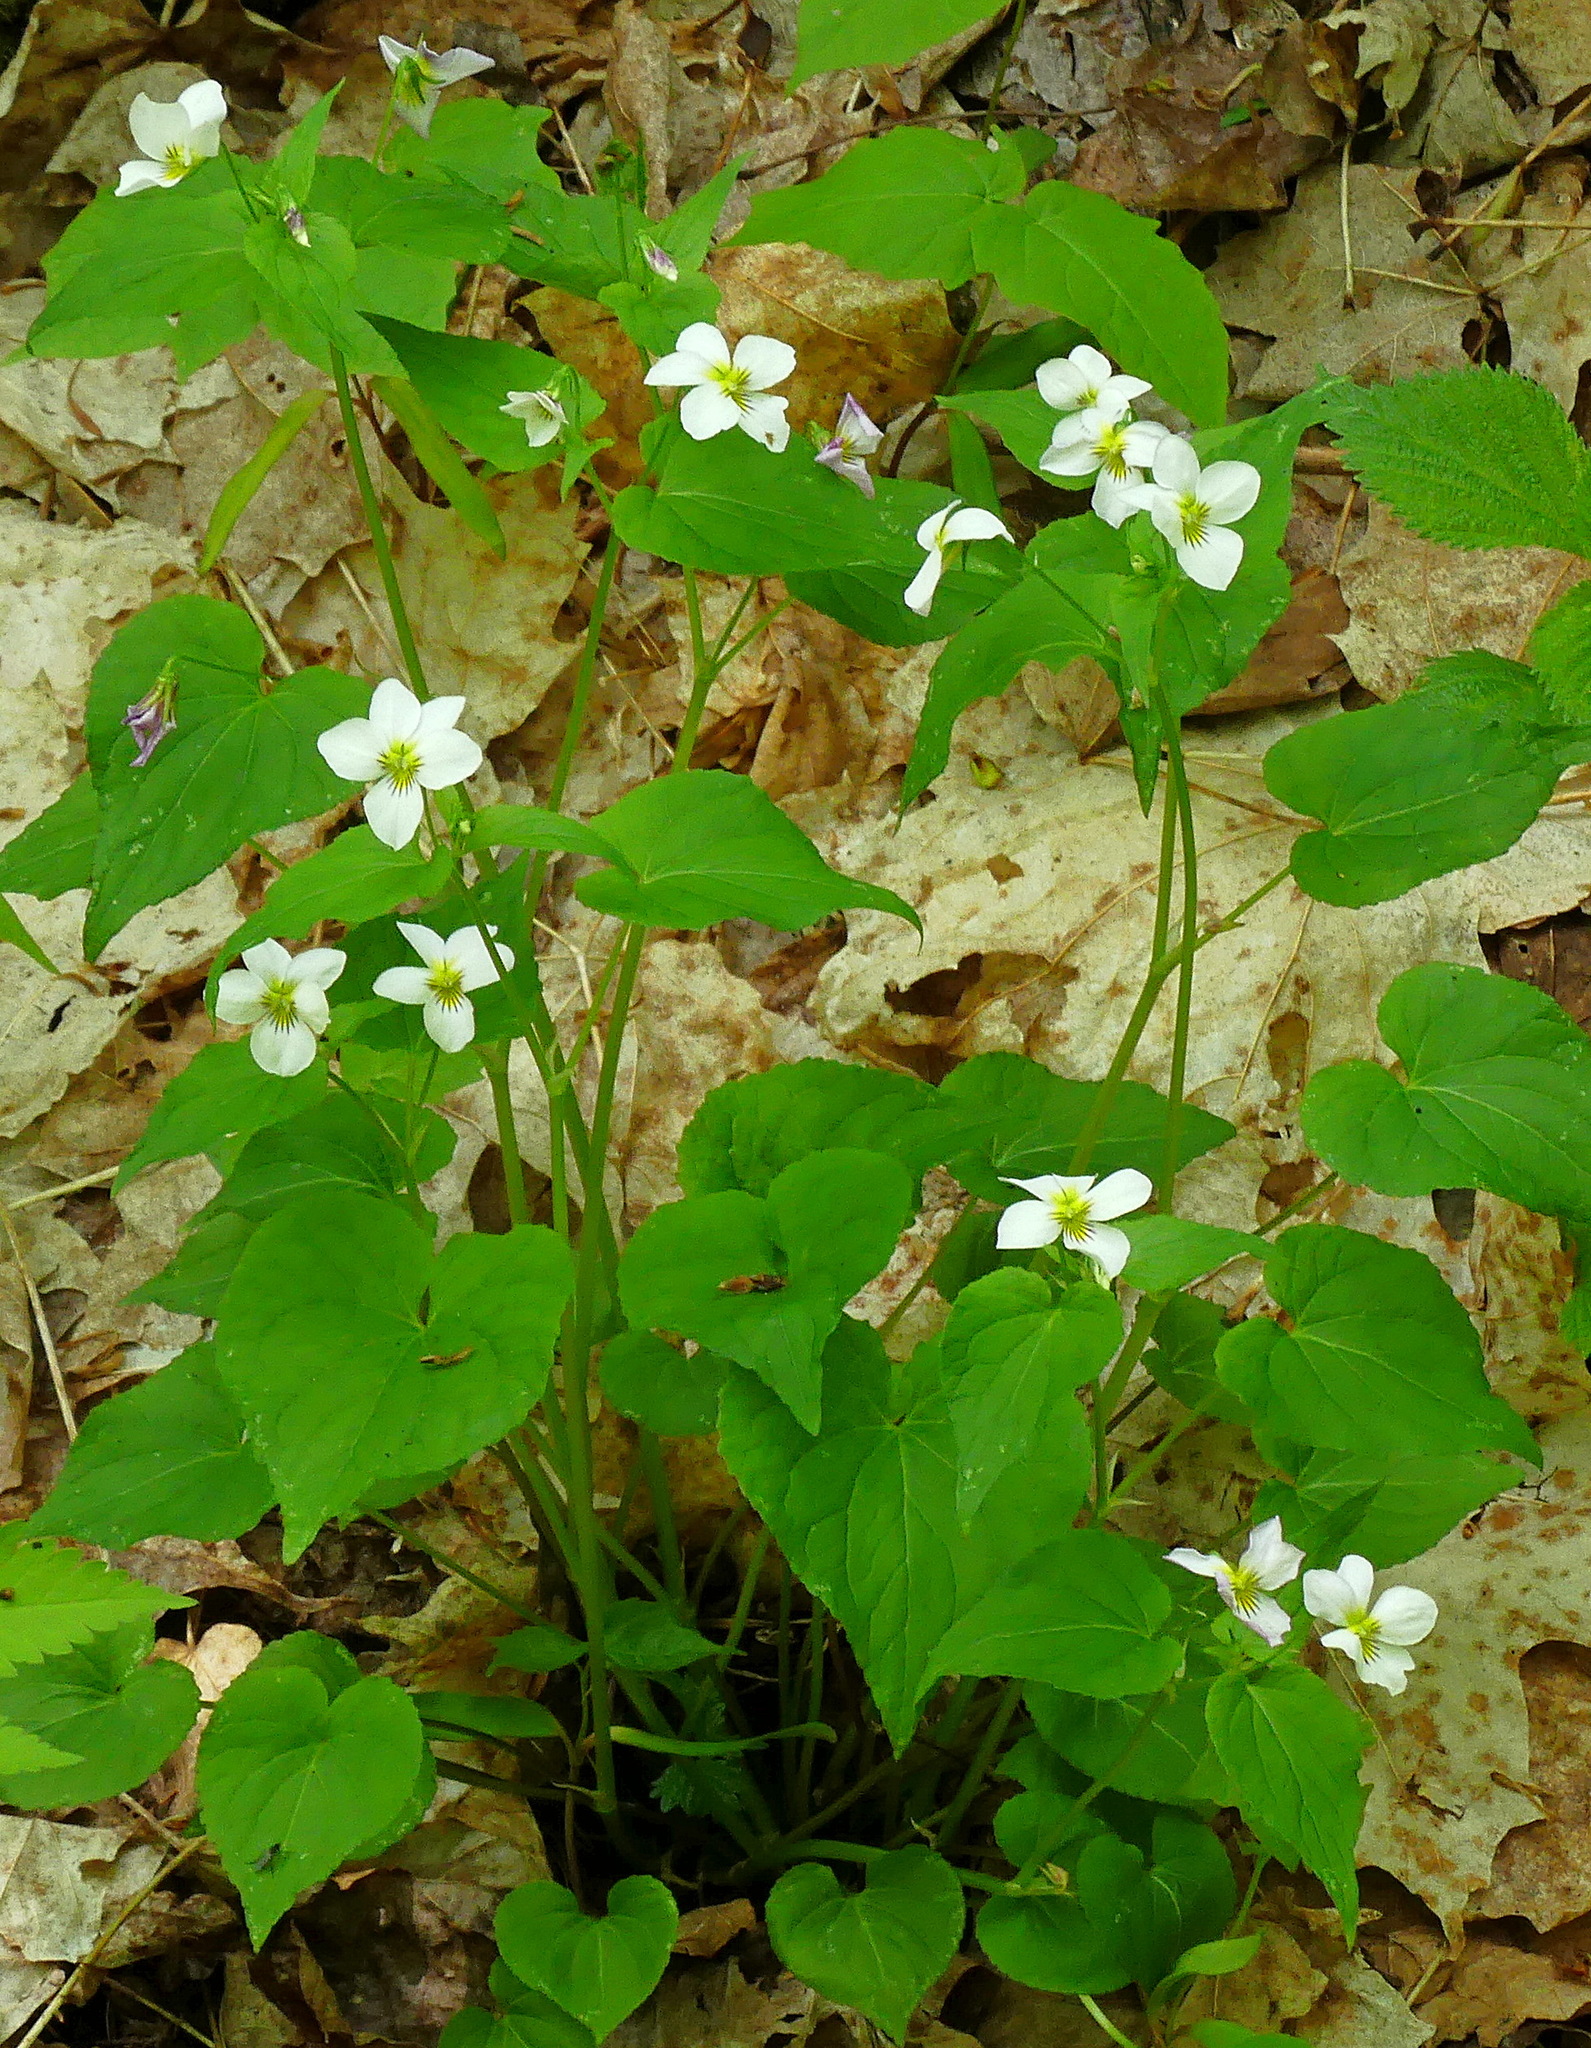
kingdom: Plantae
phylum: Tracheophyta
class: Magnoliopsida
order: Malpighiales
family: Violaceae
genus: Viola
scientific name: Viola canadensis
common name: Canada violet
